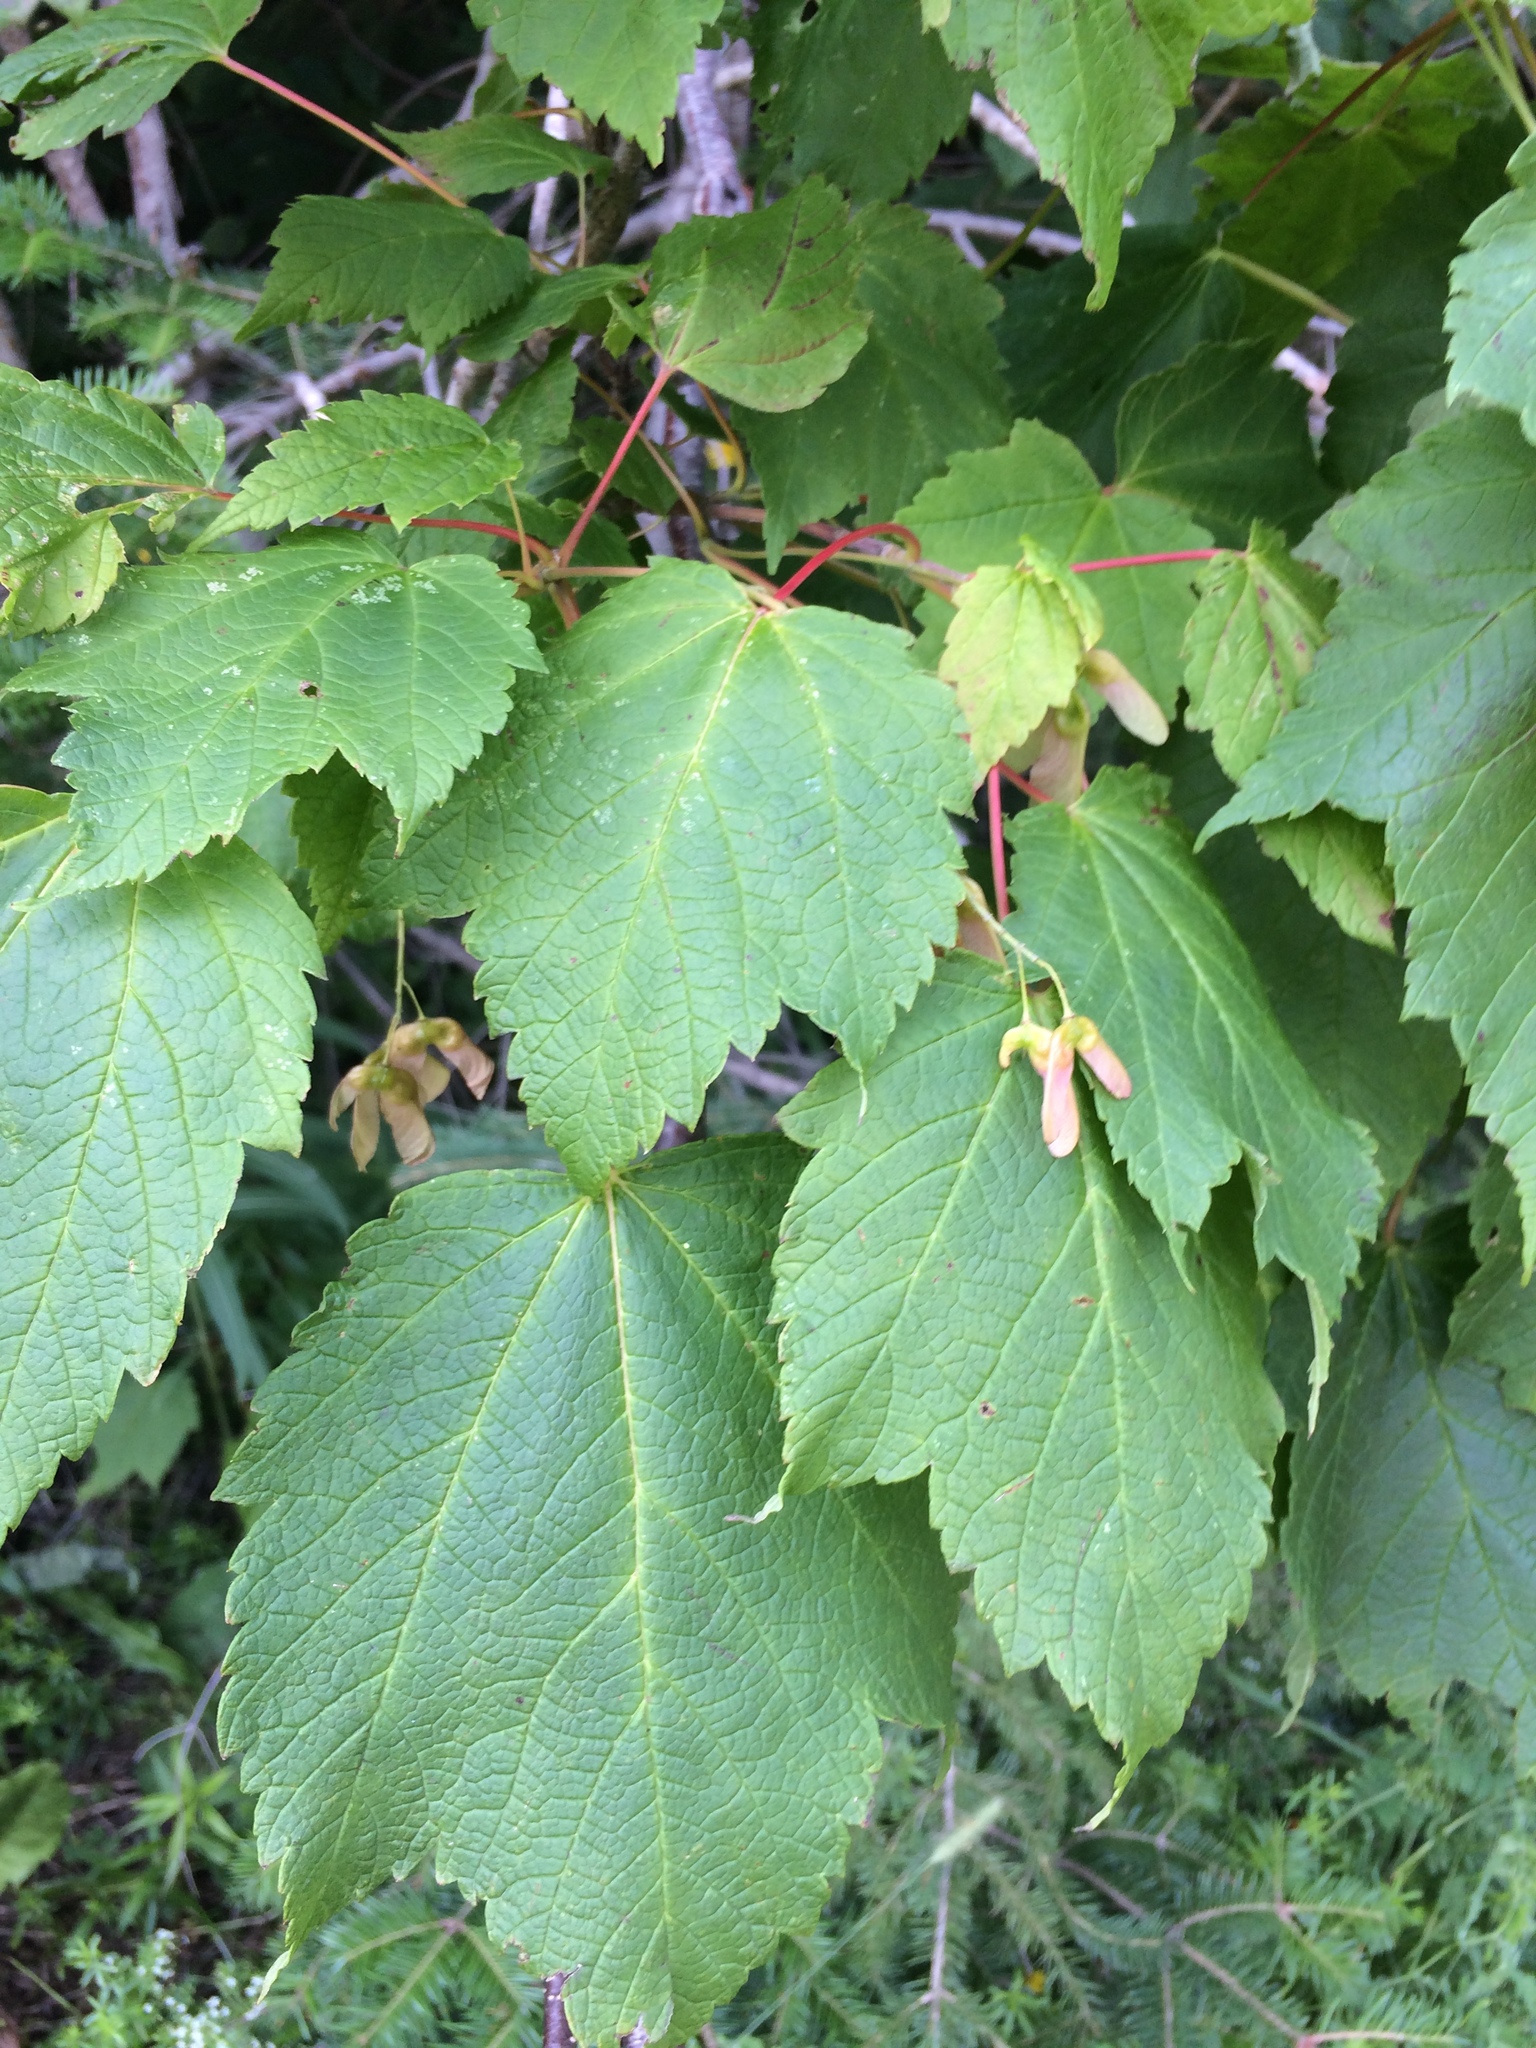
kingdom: Plantae
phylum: Tracheophyta
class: Magnoliopsida
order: Sapindales
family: Sapindaceae
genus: Acer
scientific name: Acer spicatum
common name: Mountain maple
